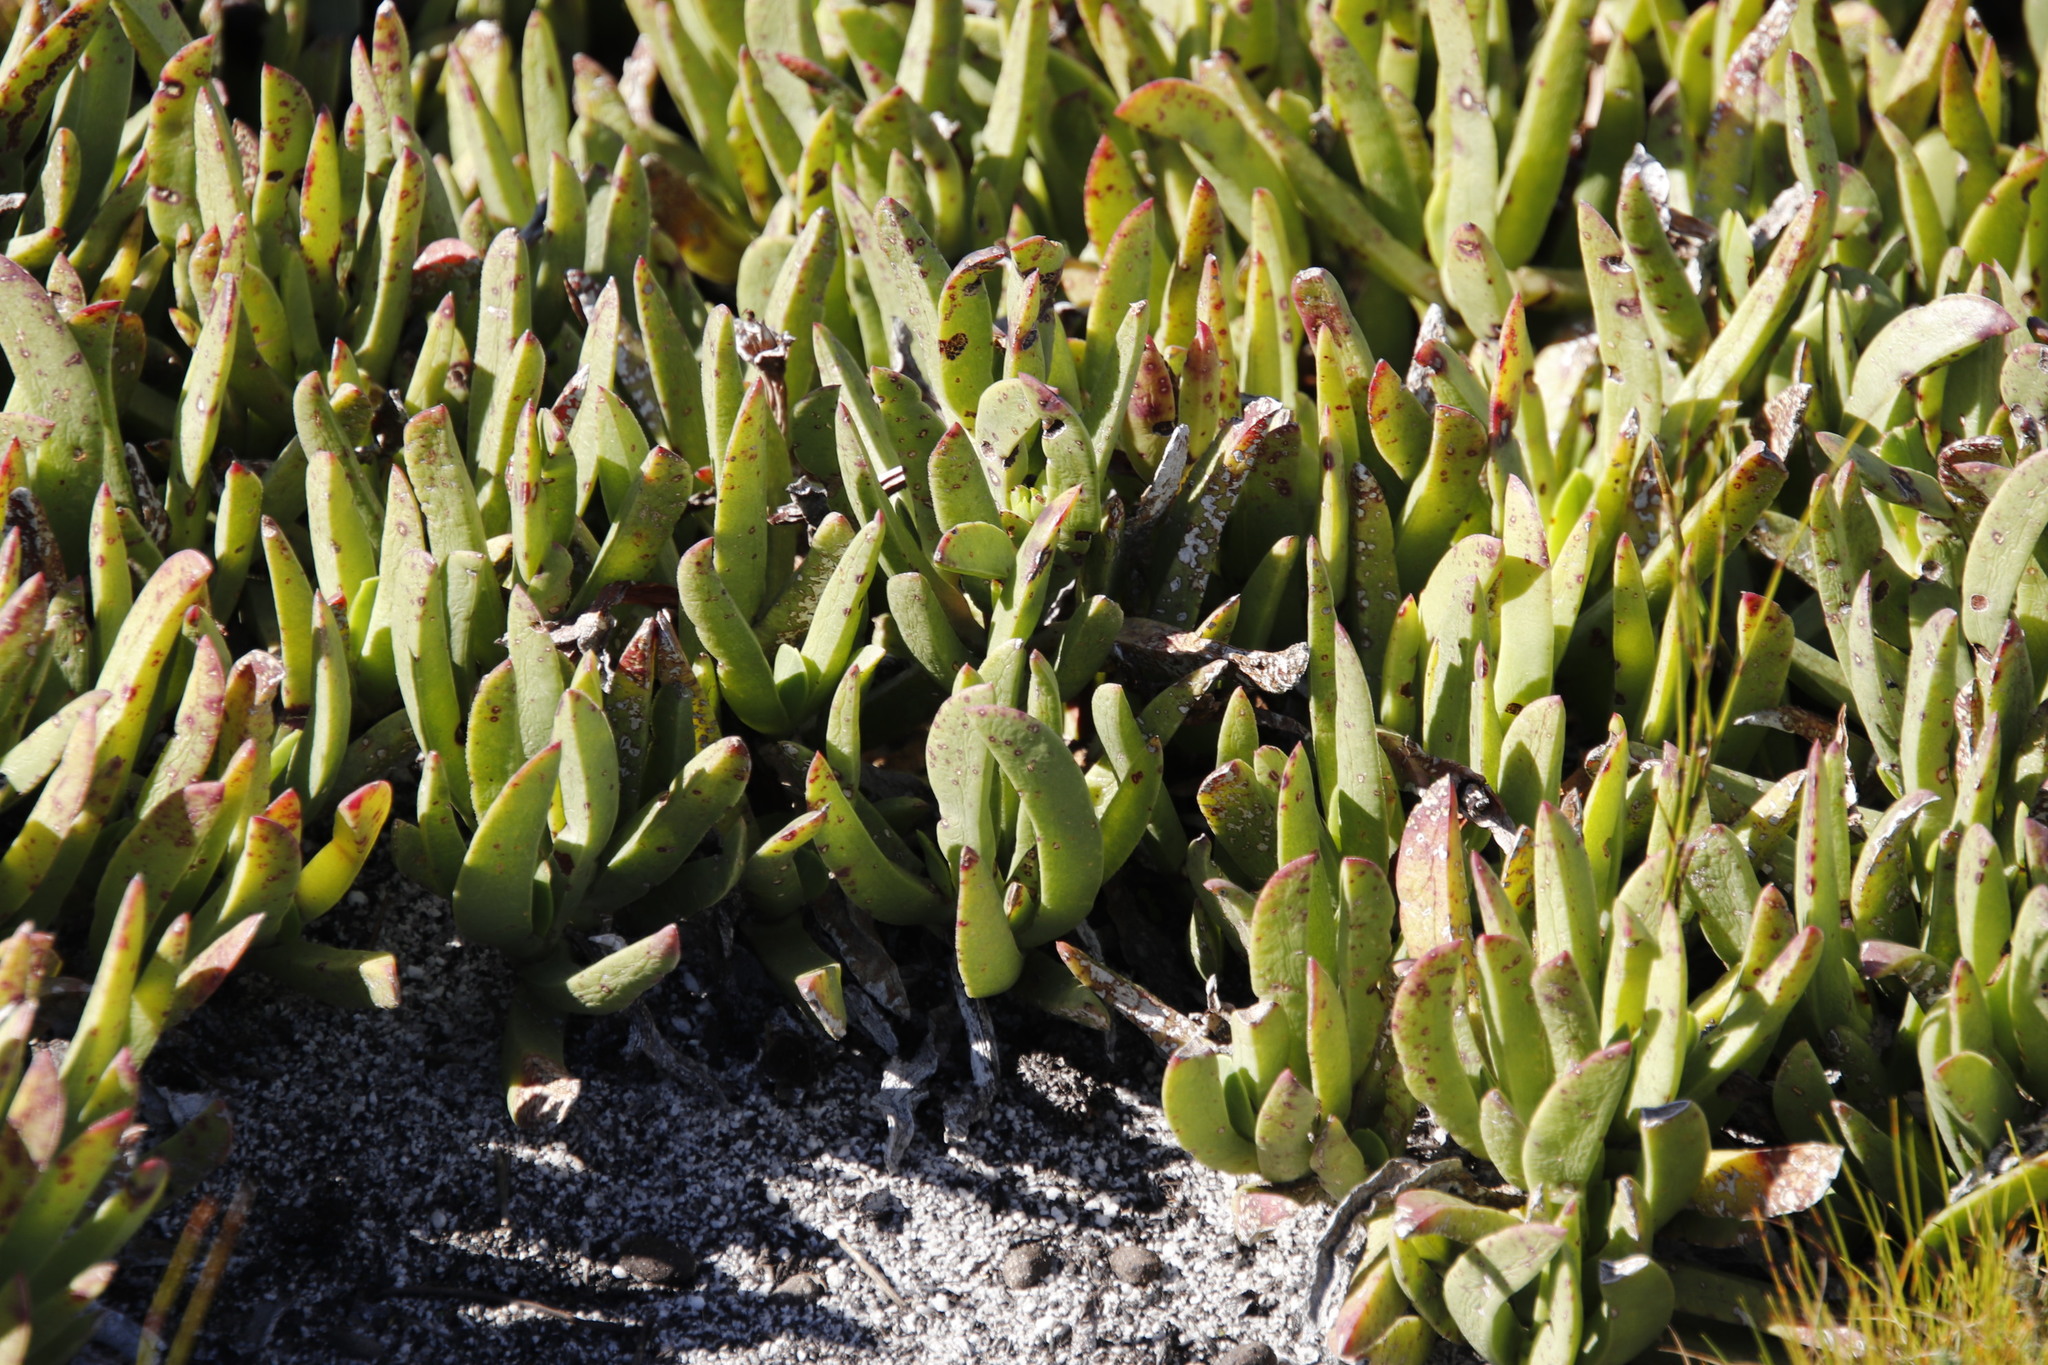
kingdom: Plantae
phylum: Tracheophyta
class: Magnoliopsida
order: Caryophyllales
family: Aizoaceae
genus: Carpobrotus
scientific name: Carpobrotus mellei
